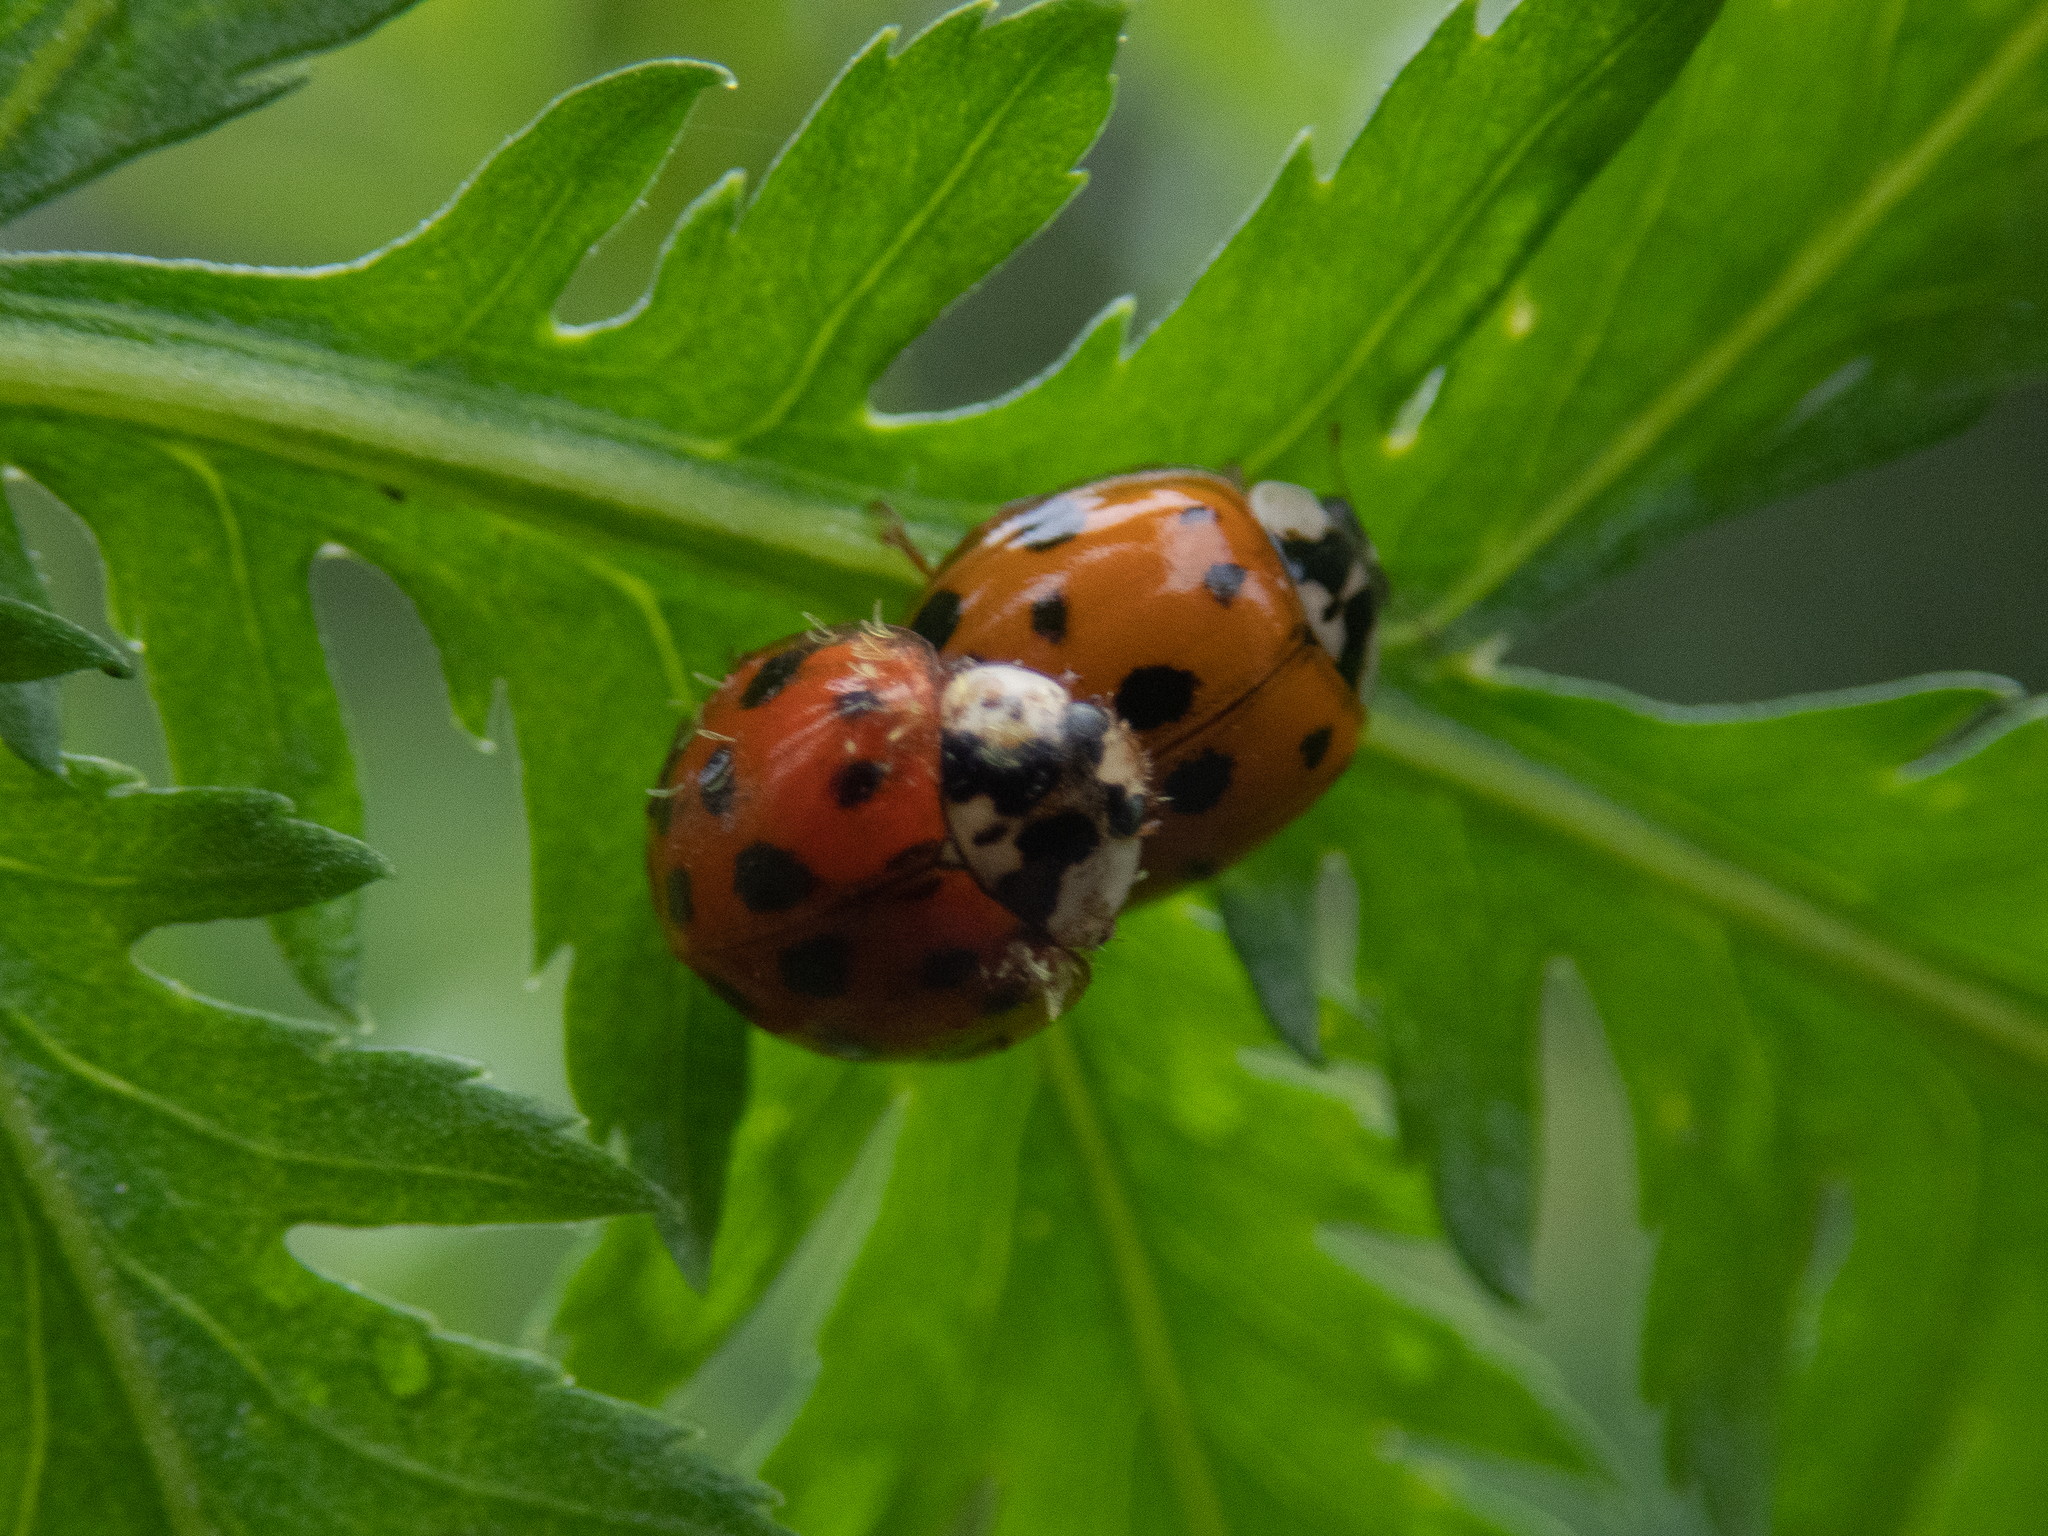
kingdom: Animalia
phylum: Arthropoda
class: Insecta
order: Coleoptera
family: Coccinellidae
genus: Harmonia
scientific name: Harmonia axyridis
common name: Harlequin ladybird
